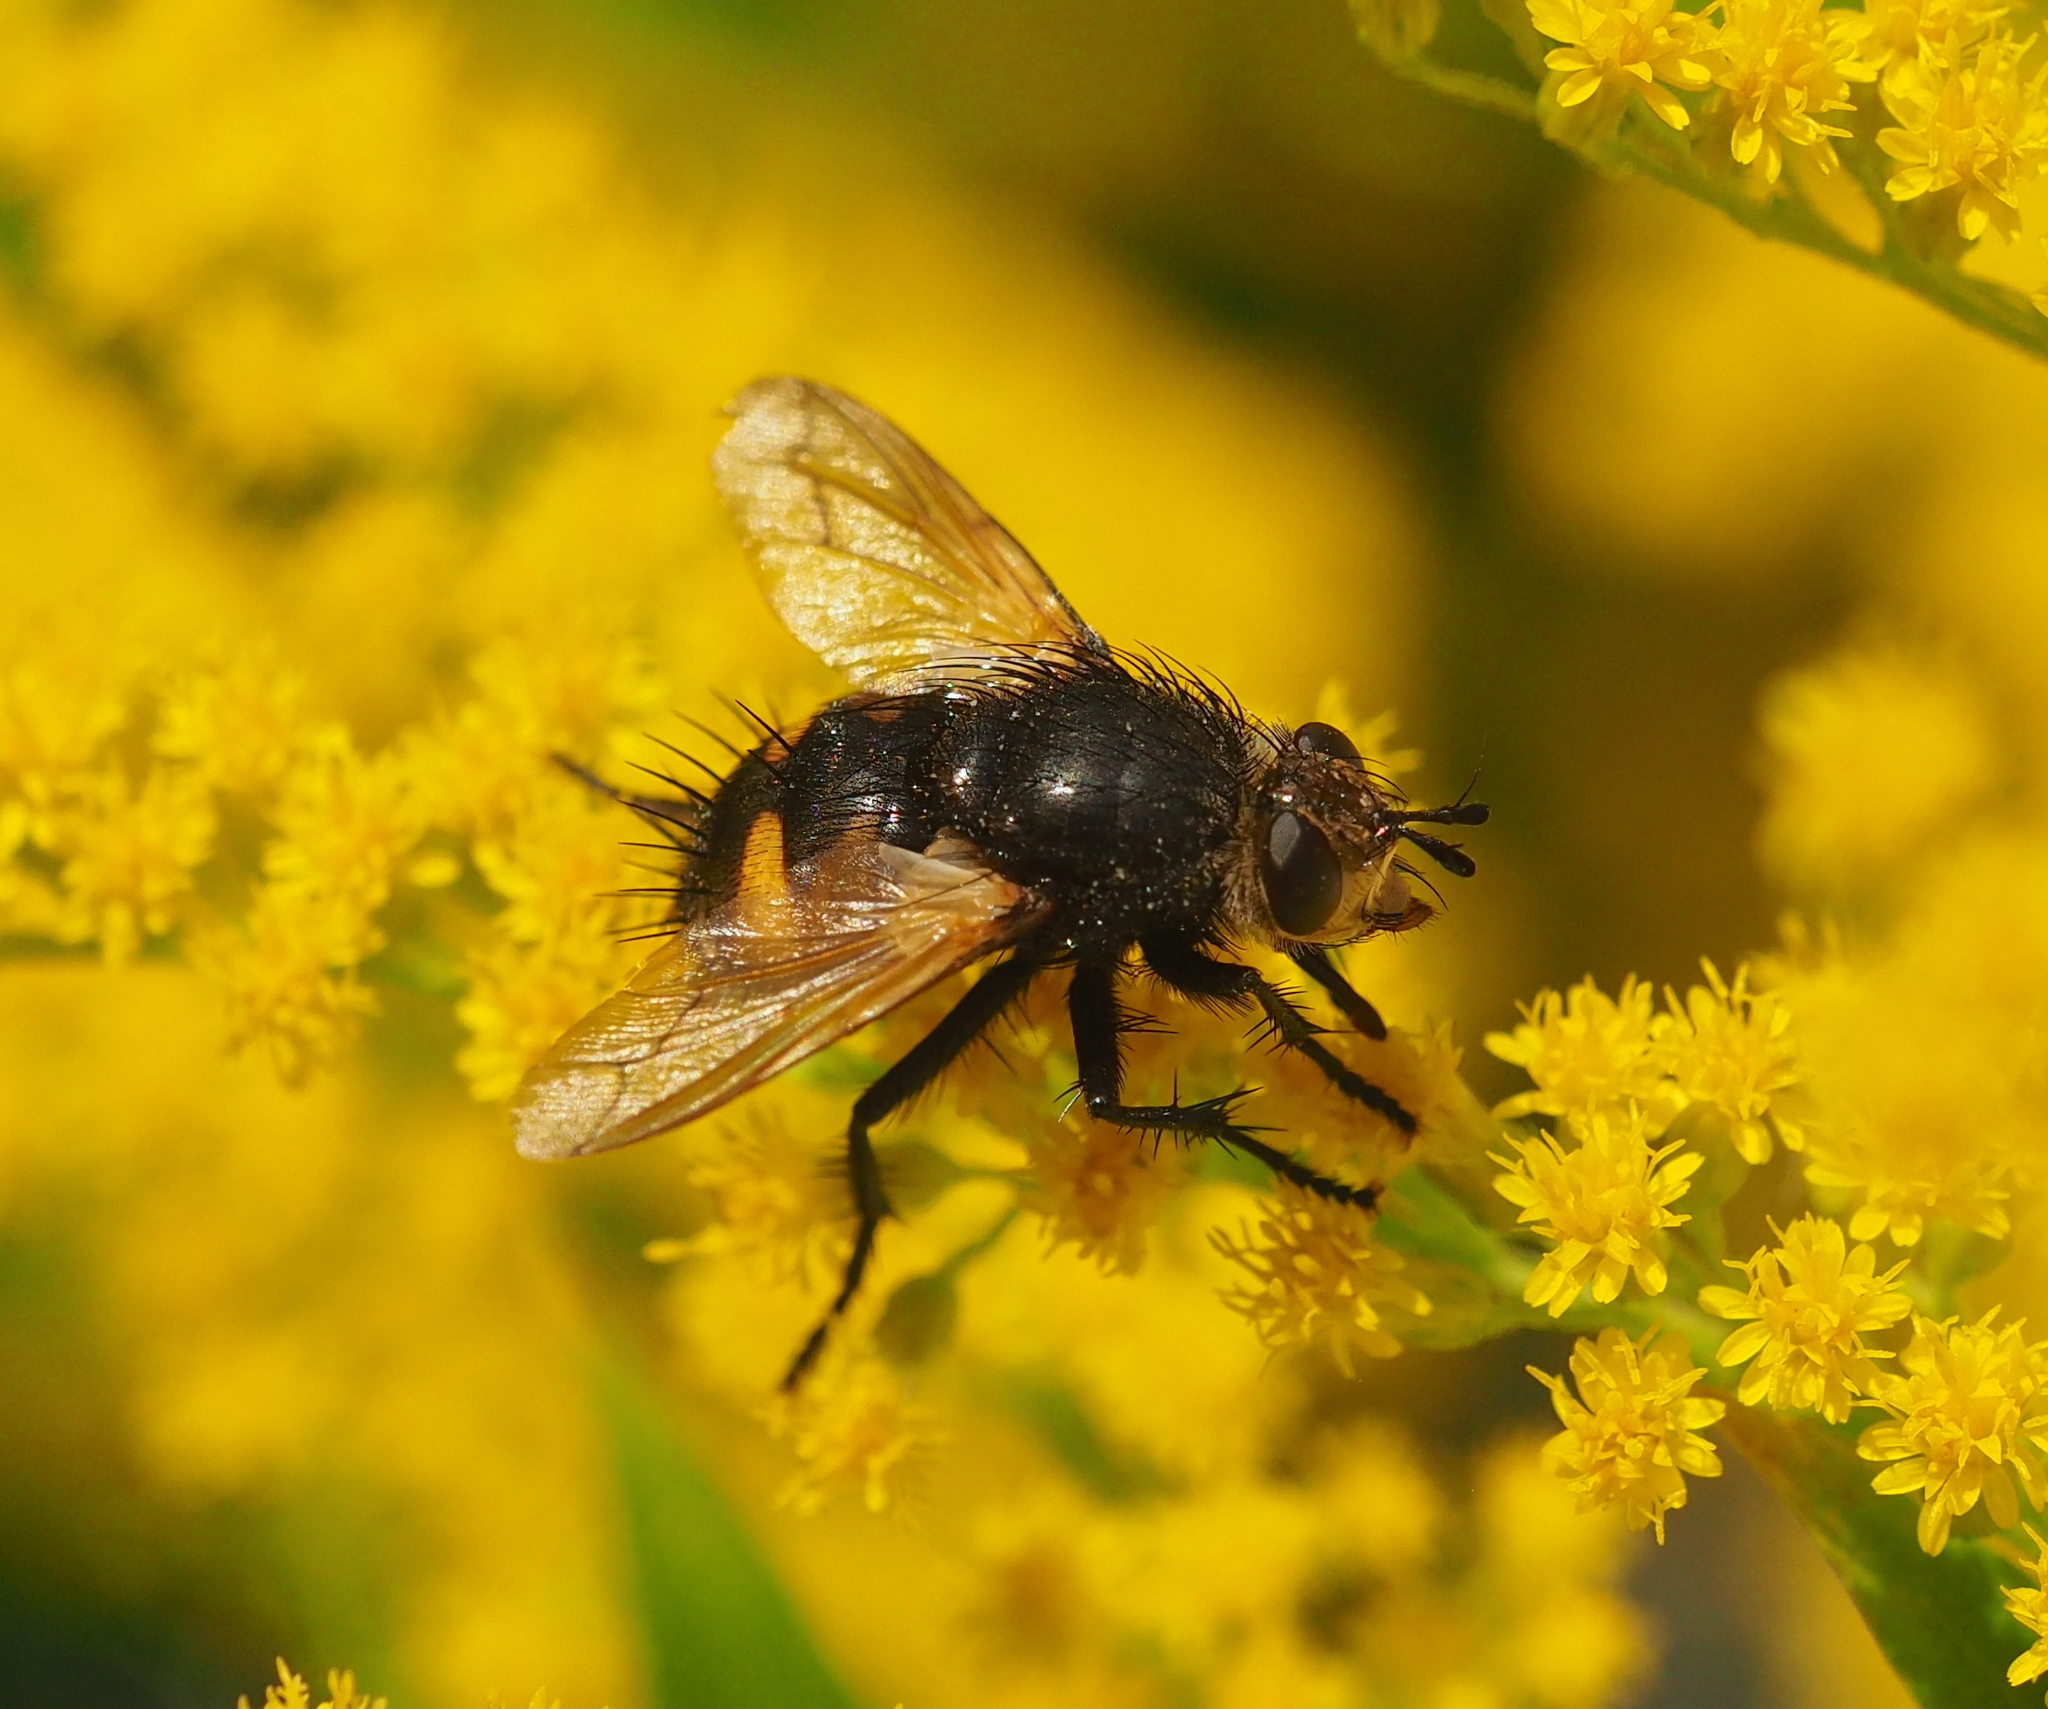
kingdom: Animalia
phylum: Arthropoda
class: Insecta
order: Diptera
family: Tachinidae
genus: Nowickia
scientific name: Nowickia ferox
